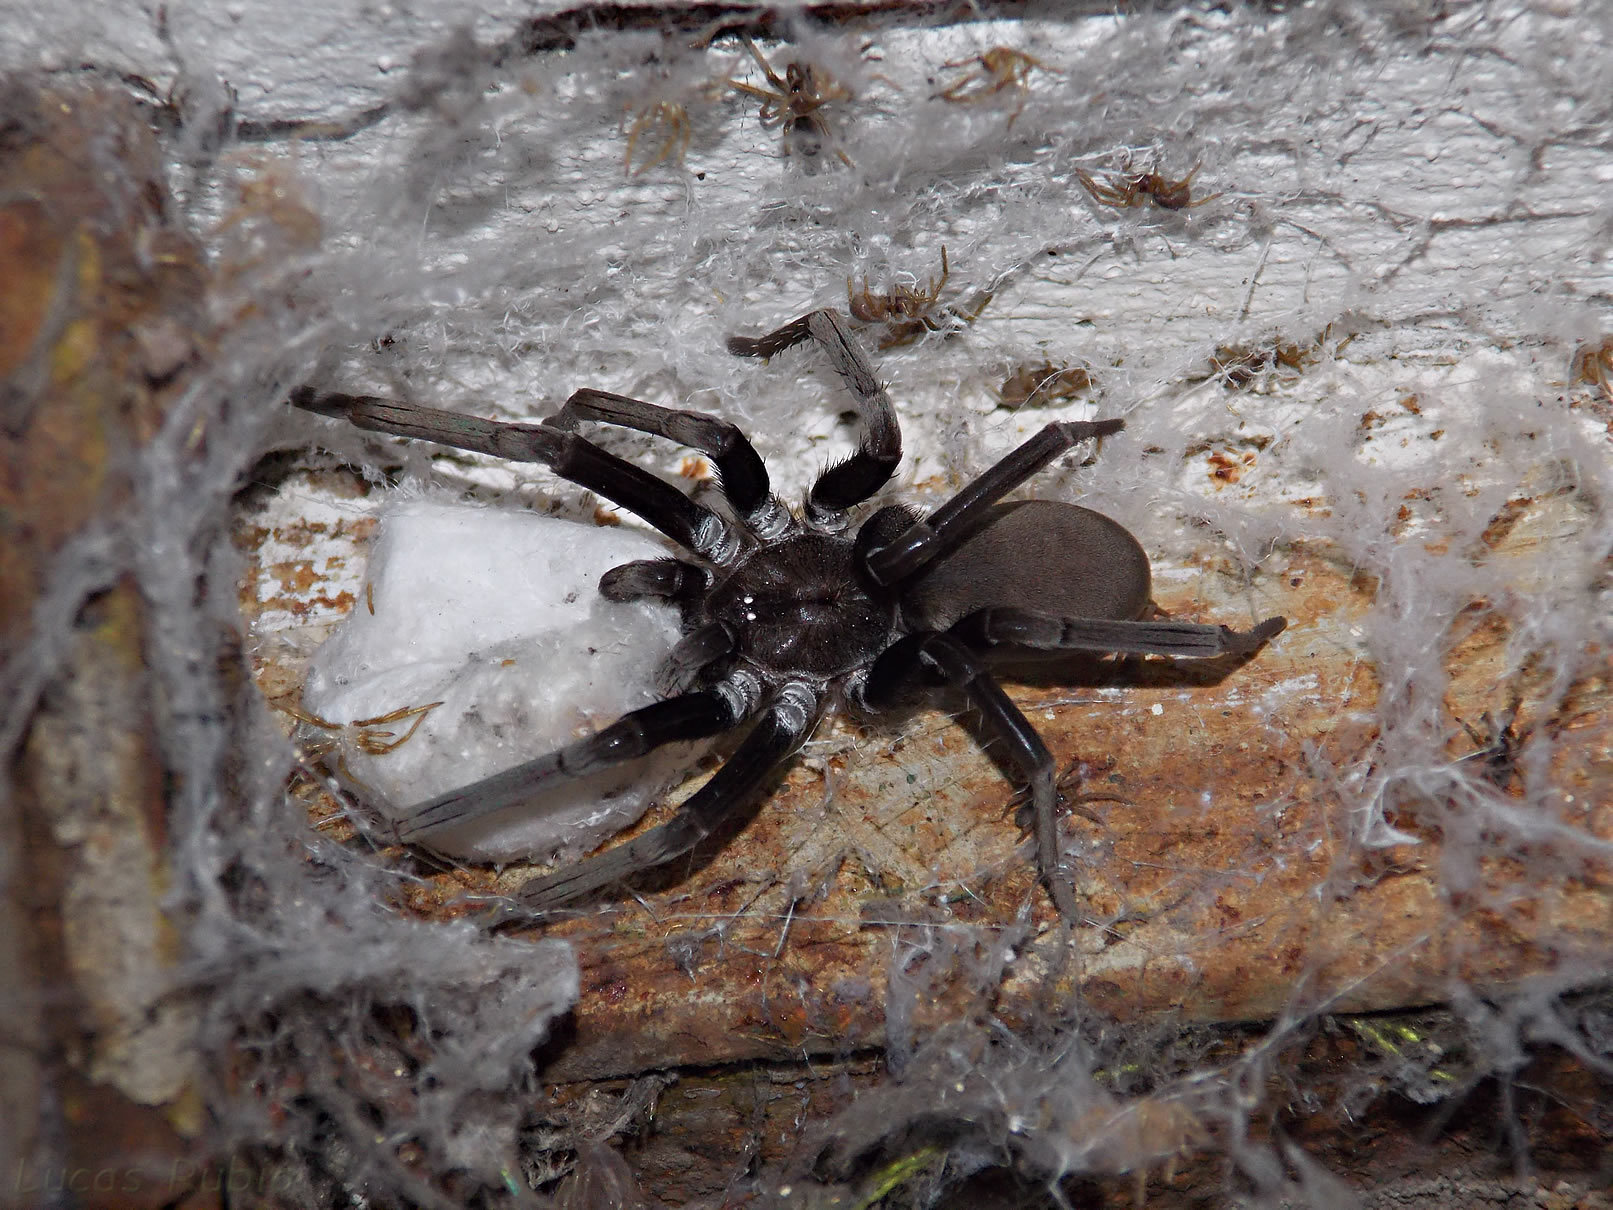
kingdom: Animalia
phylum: Arthropoda
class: Arachnida
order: Araneae
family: Filistatidae
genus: Kukulcania
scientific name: Kukulcania hibernalis
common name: Crevice weaver
